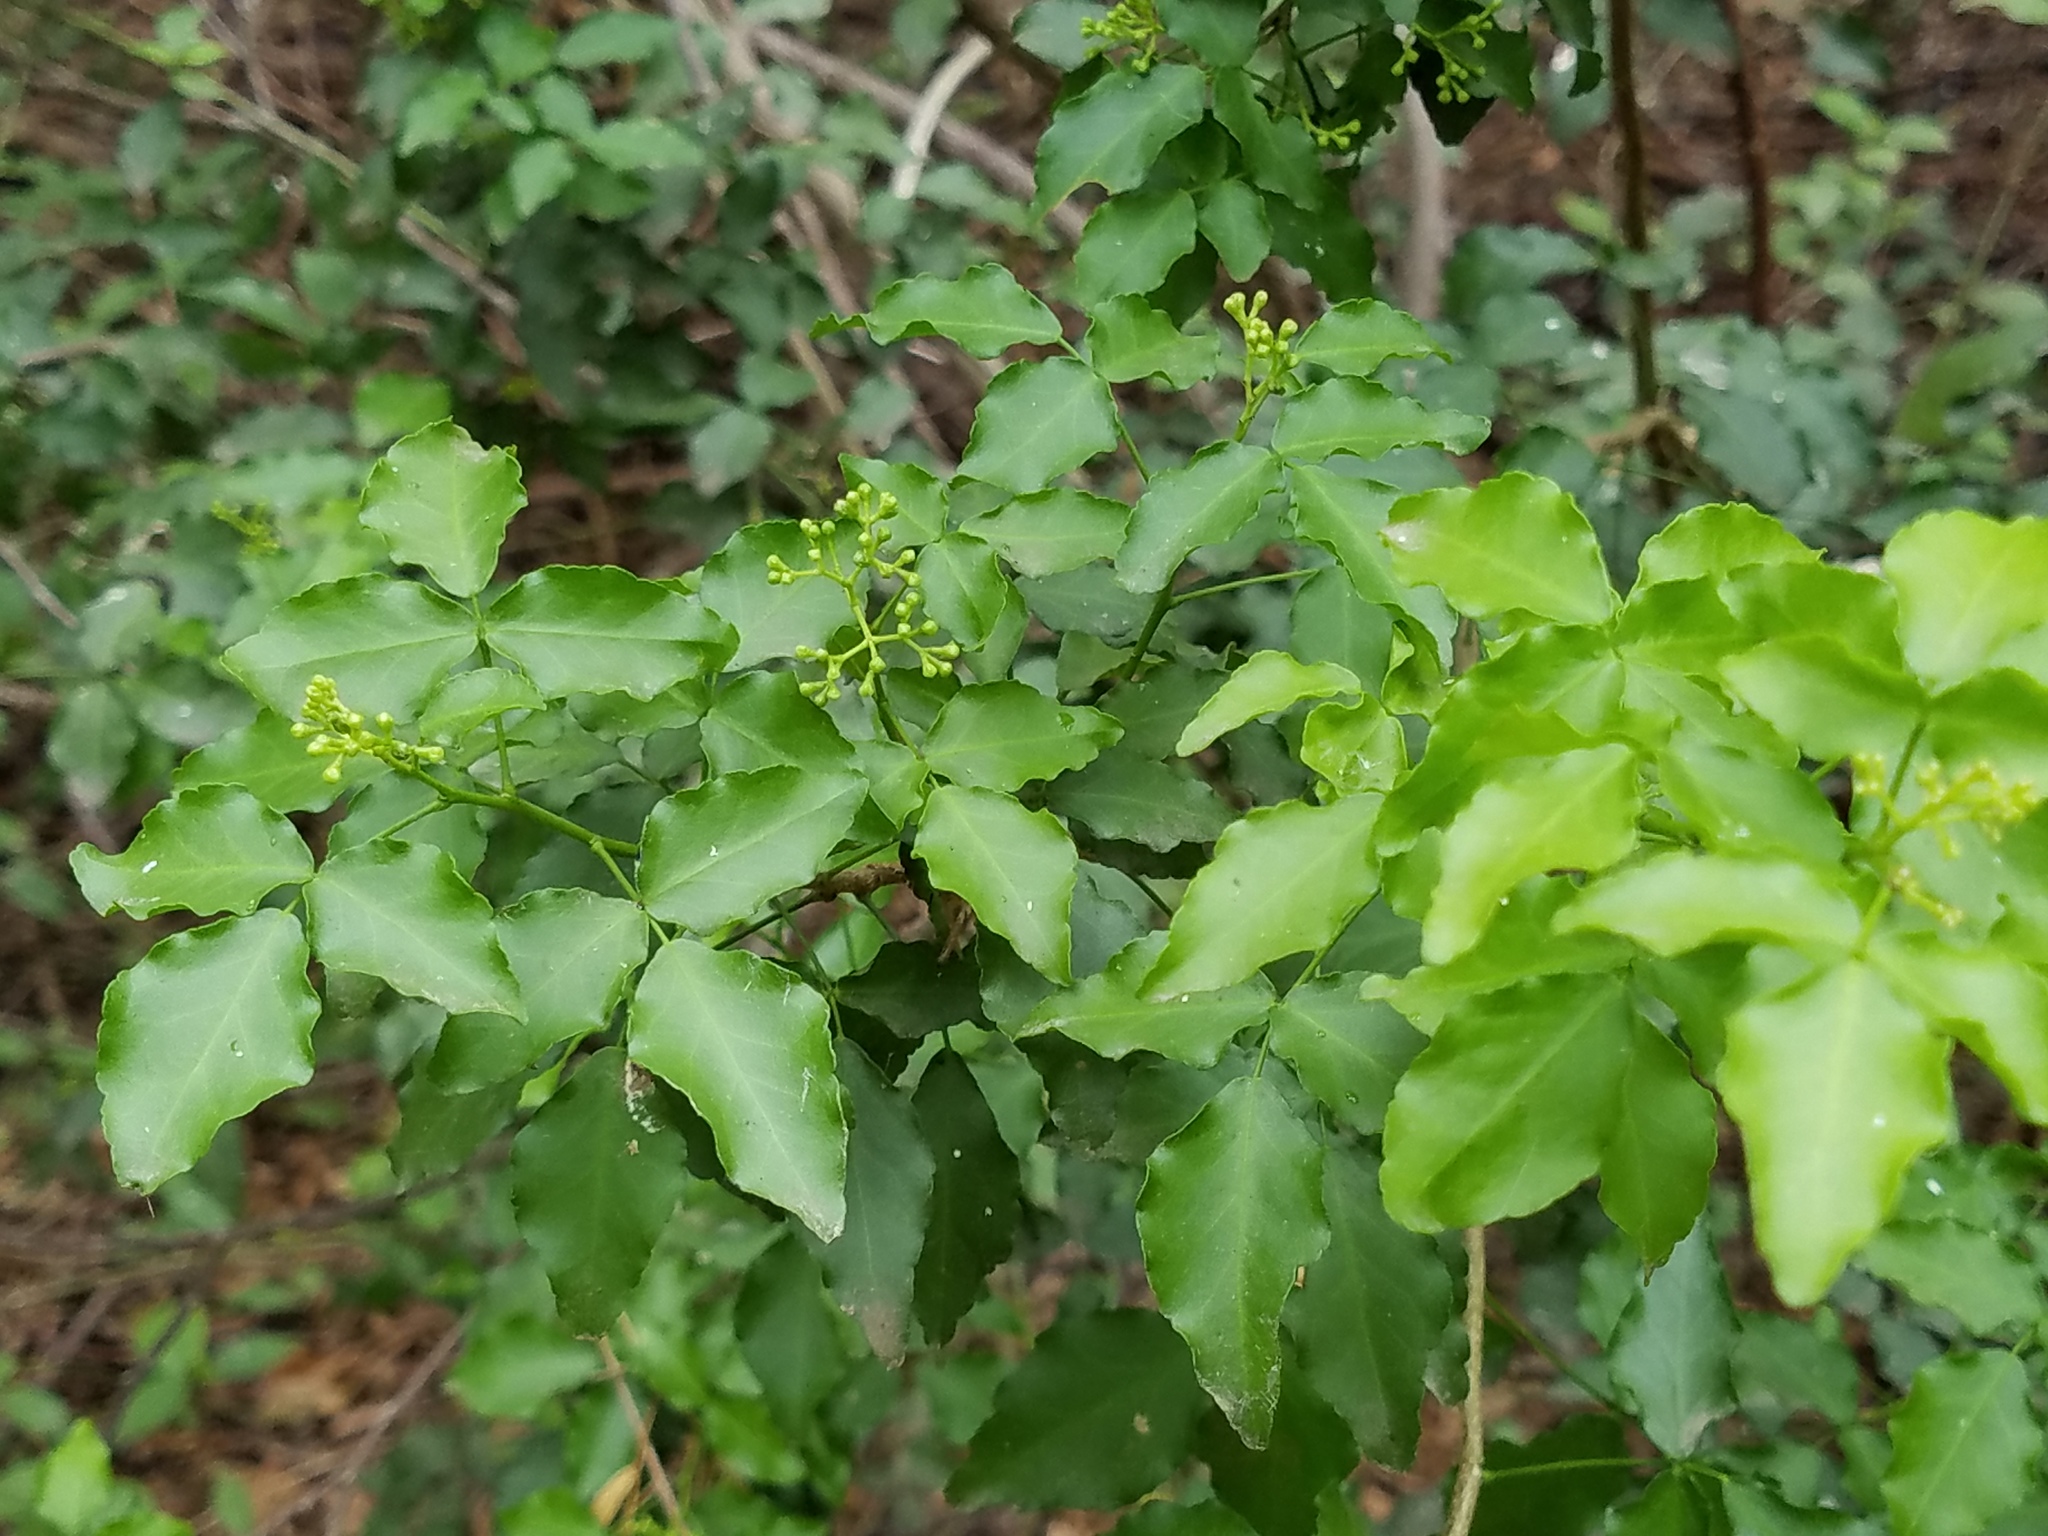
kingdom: Plantae
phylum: Tracheophyta
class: Magnoliopsida
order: Sapindales
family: Rutaceae
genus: Amyris
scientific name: Amyris texana
